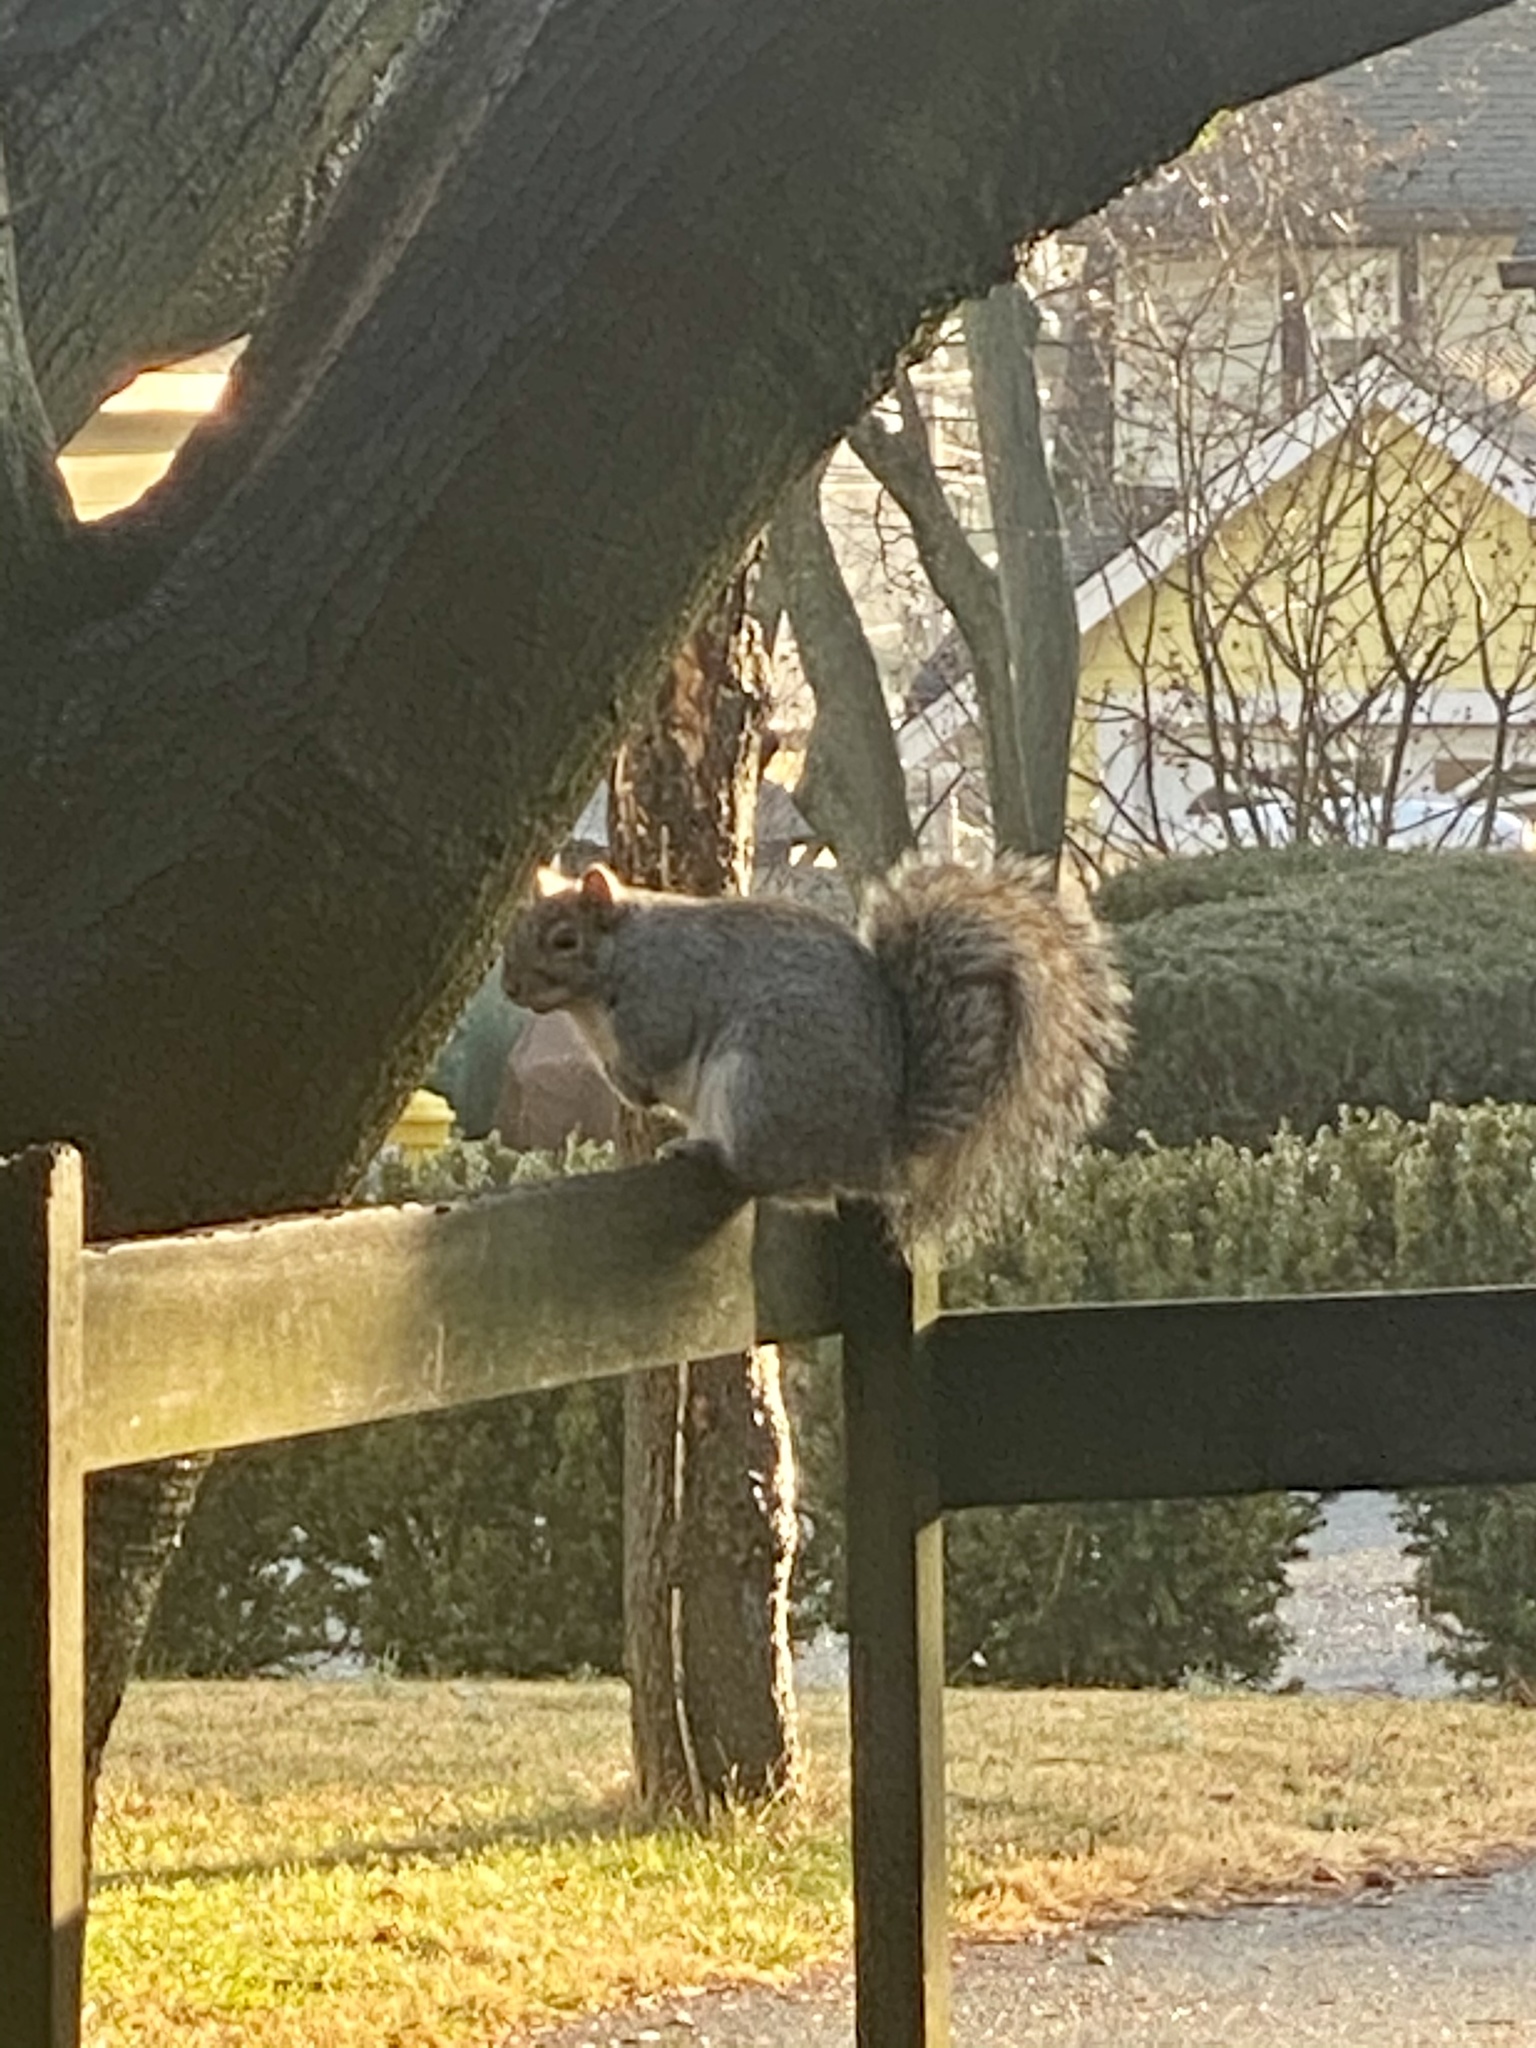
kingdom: Animalia
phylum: Chordata
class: Mammalia
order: Rodentia
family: Sciuridae
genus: Sciurus
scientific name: Sciurus carolinensis
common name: Eastern gray squirrel
